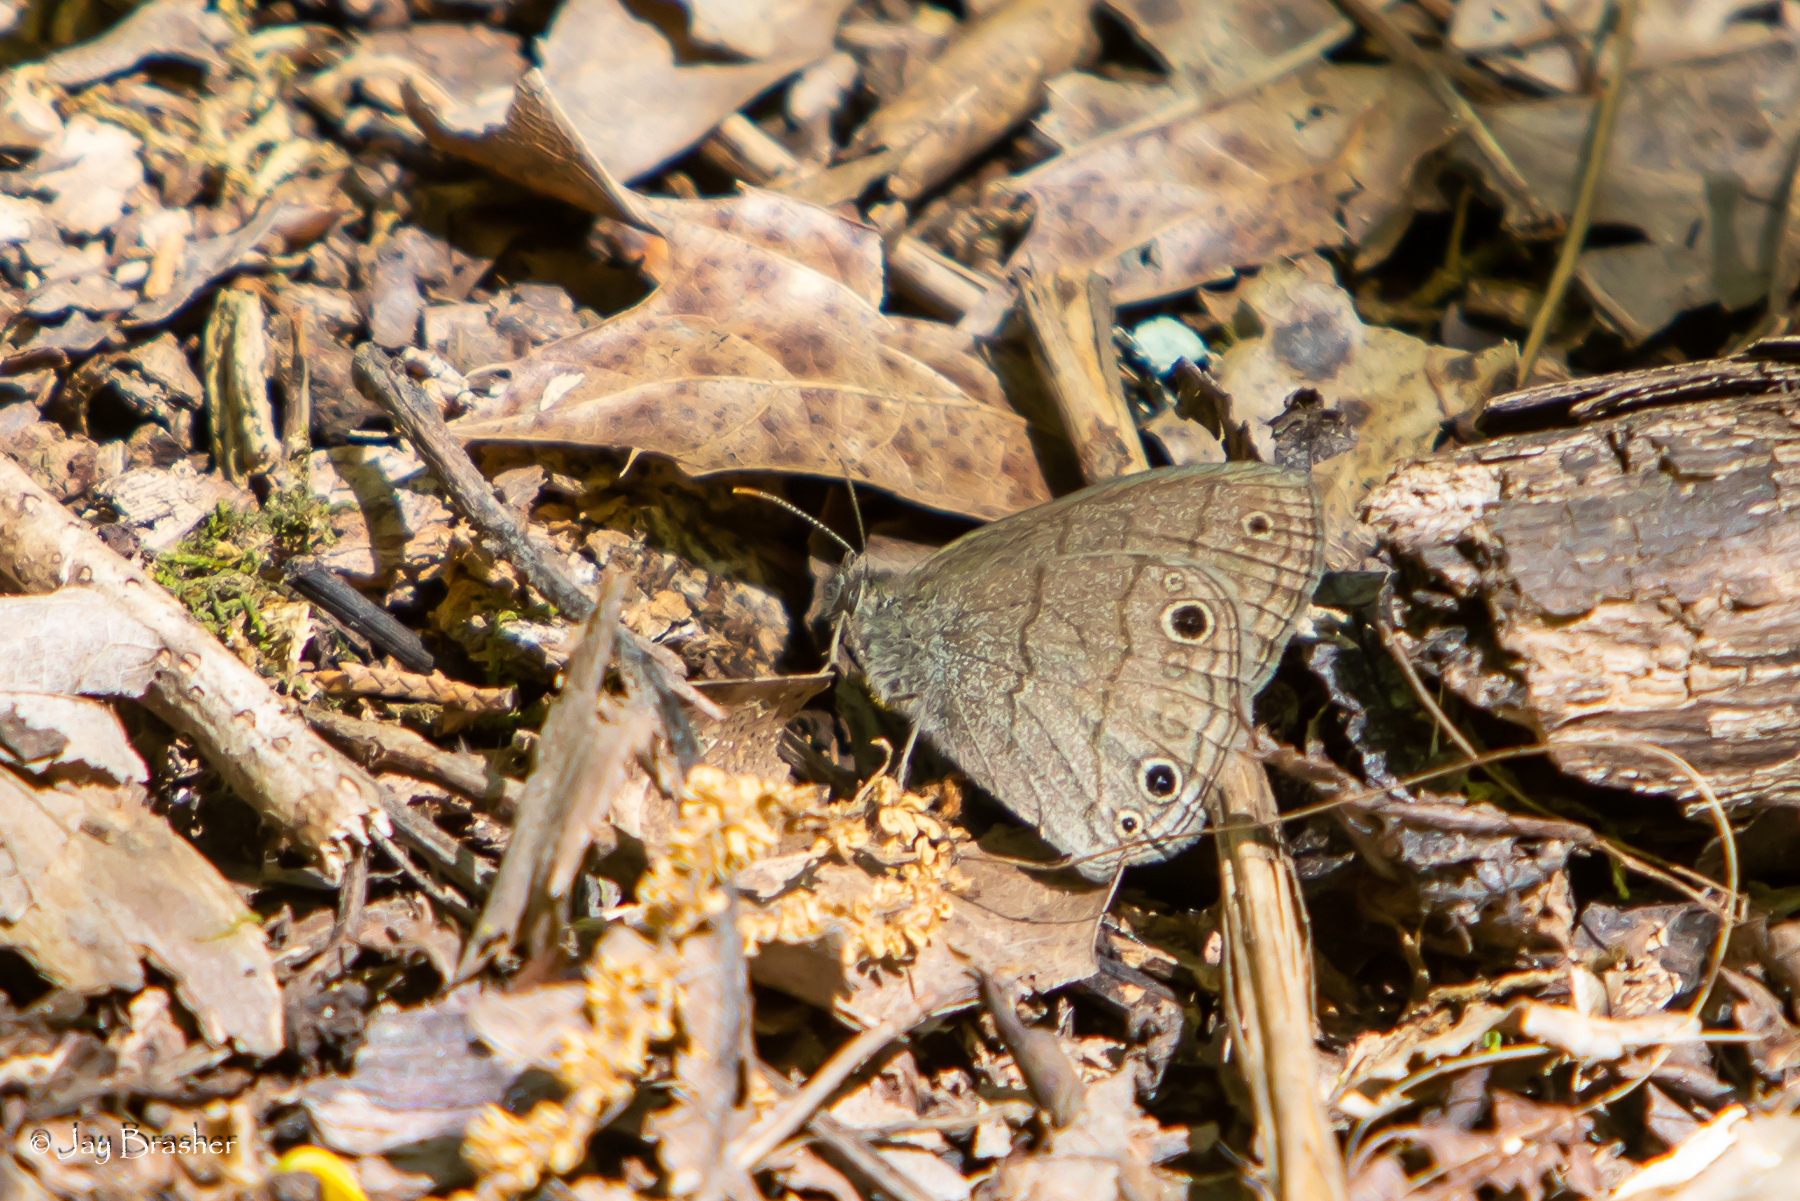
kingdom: Animalia
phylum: Arthropoda
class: Insecta
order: Lepidoptera
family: Nymphalidae
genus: Hermeuptychia
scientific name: Hermeuptychia hermes
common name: Hermes satyr
